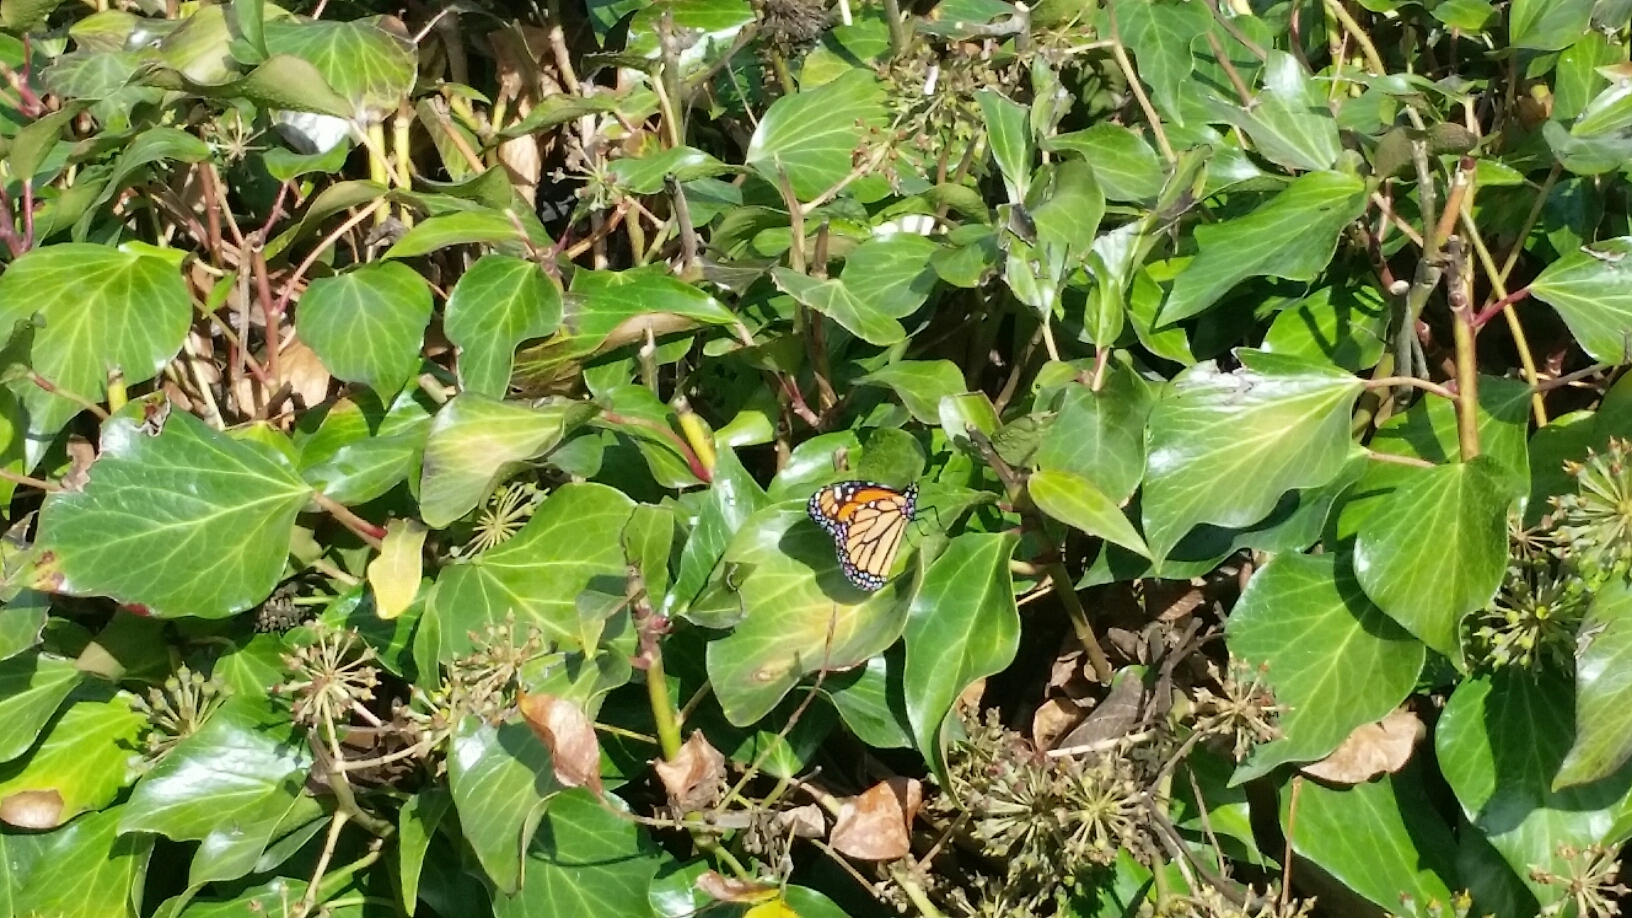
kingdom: Animalia
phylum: Arthropoda
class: Insecta
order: Lepidoptera
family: Nymphalidae
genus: Danaus
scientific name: Danaus plexippus
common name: Monarch
